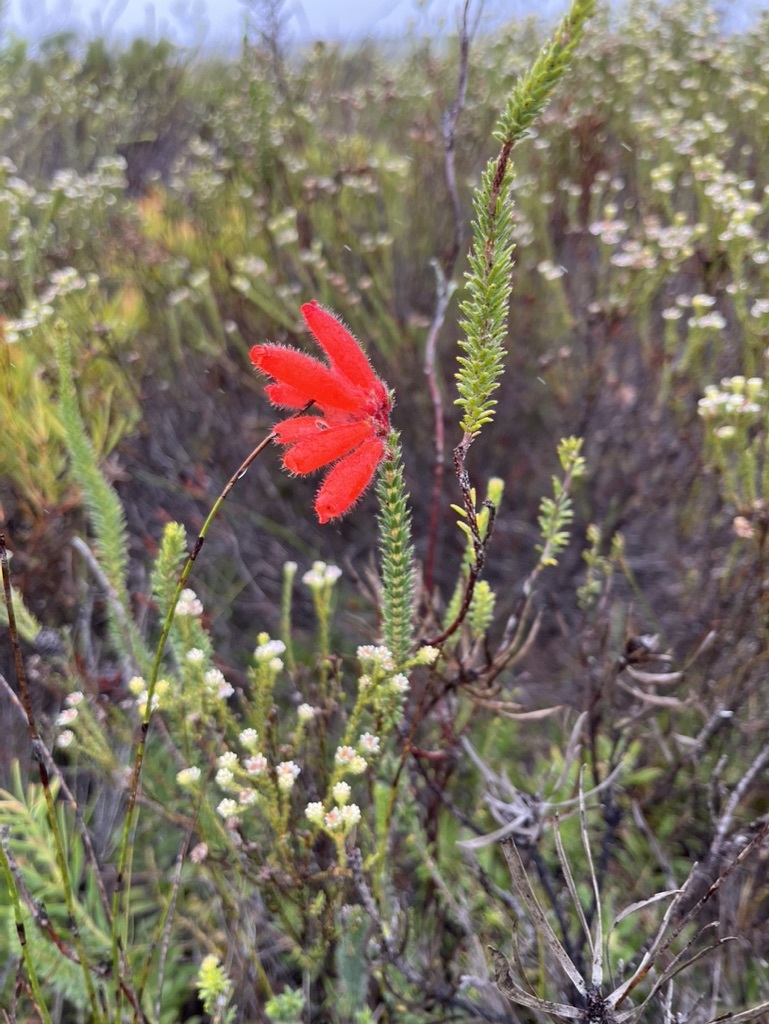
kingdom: Plantae
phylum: Tracheophyta
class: Magnoliopsida
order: Ericales
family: Ericaceae
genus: Erica
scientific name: Erica cerinthoides
